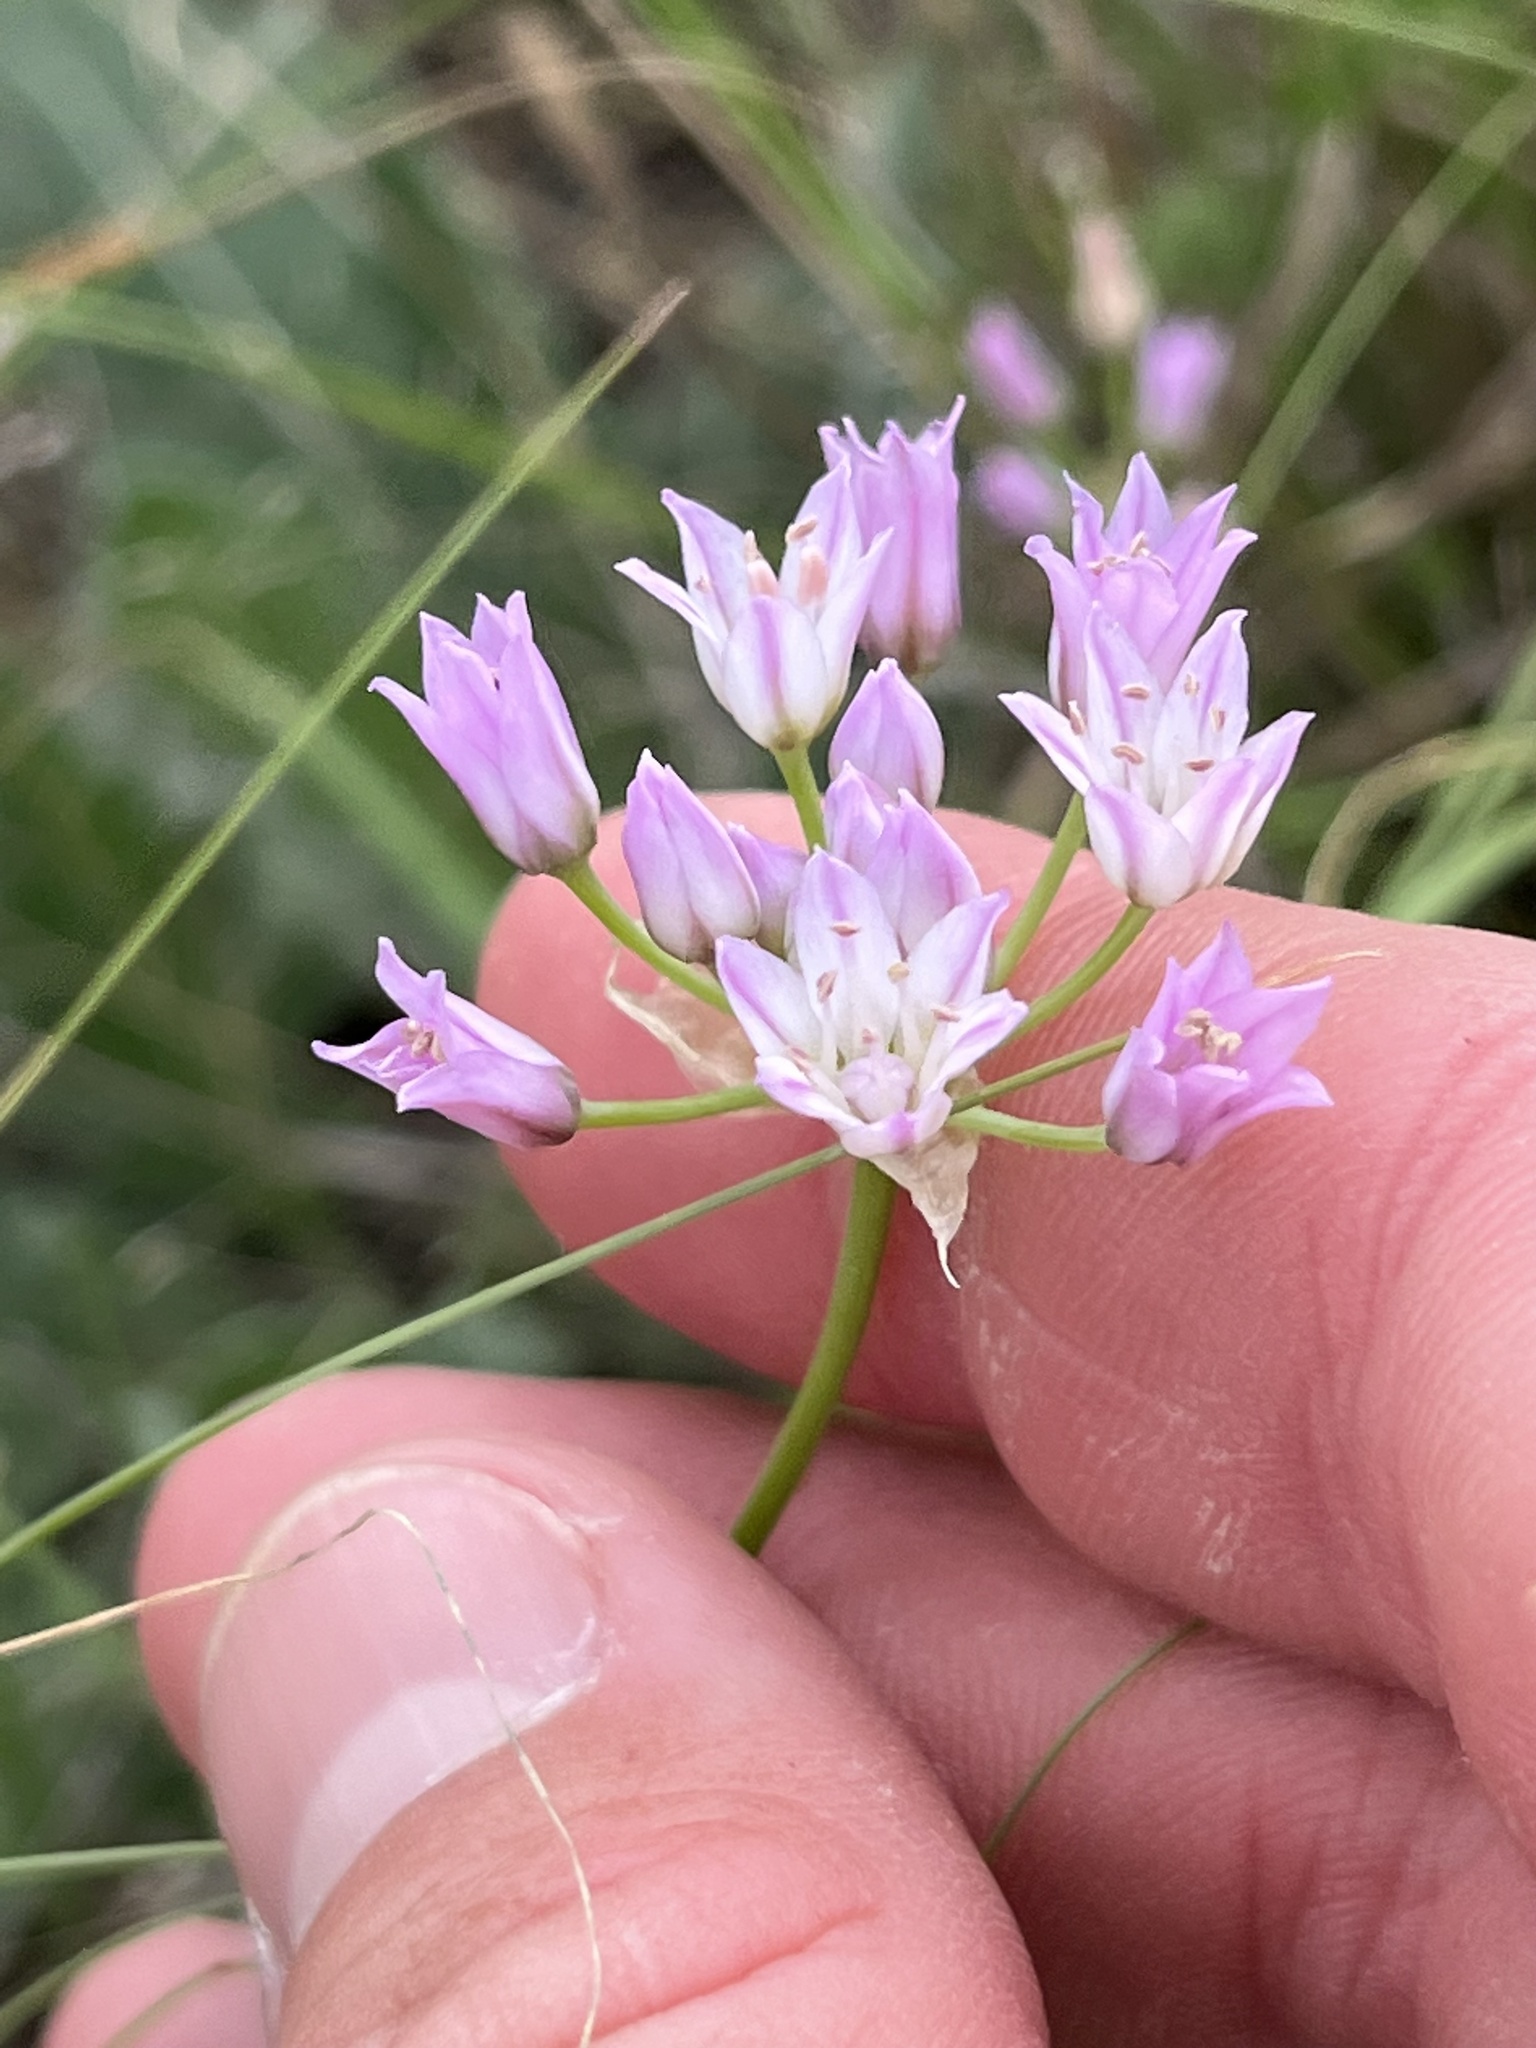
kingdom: Plantae
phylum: Tracheophyta
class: Liliopsida
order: Asparagales
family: Amaryllidaceae
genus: Allium
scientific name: Allium drummondii
